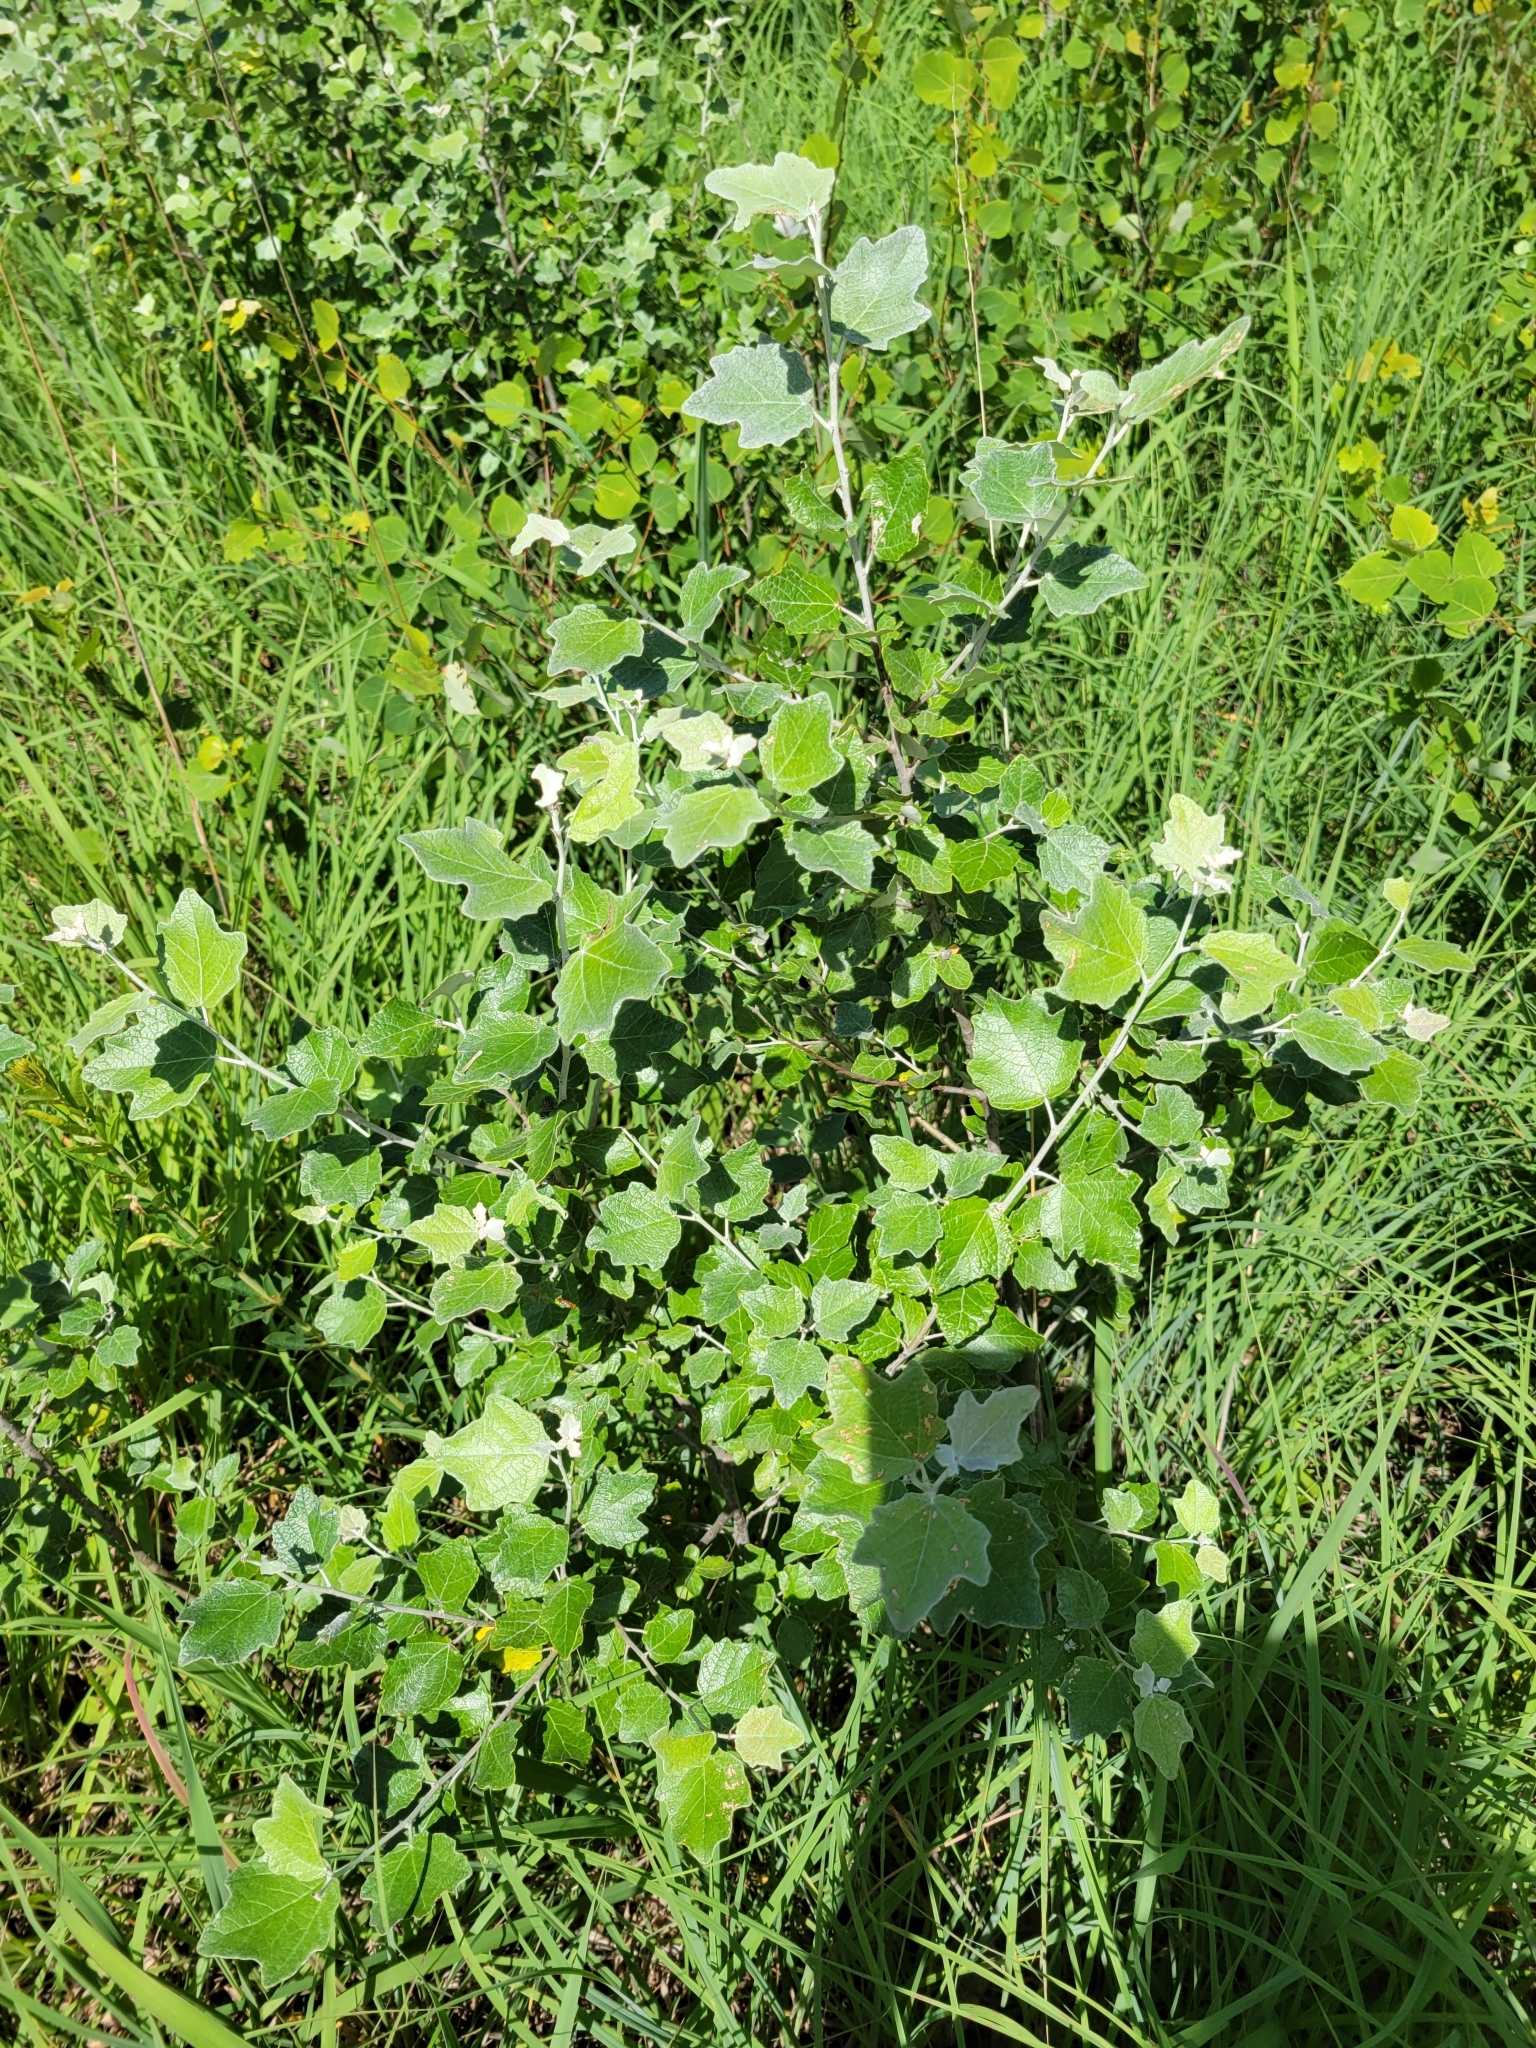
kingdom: Plantae
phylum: Tracheophyta
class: Magnoliopsida
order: Malpighiales
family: Salicaceae
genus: Populus
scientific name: Populus alba
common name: White poplar
